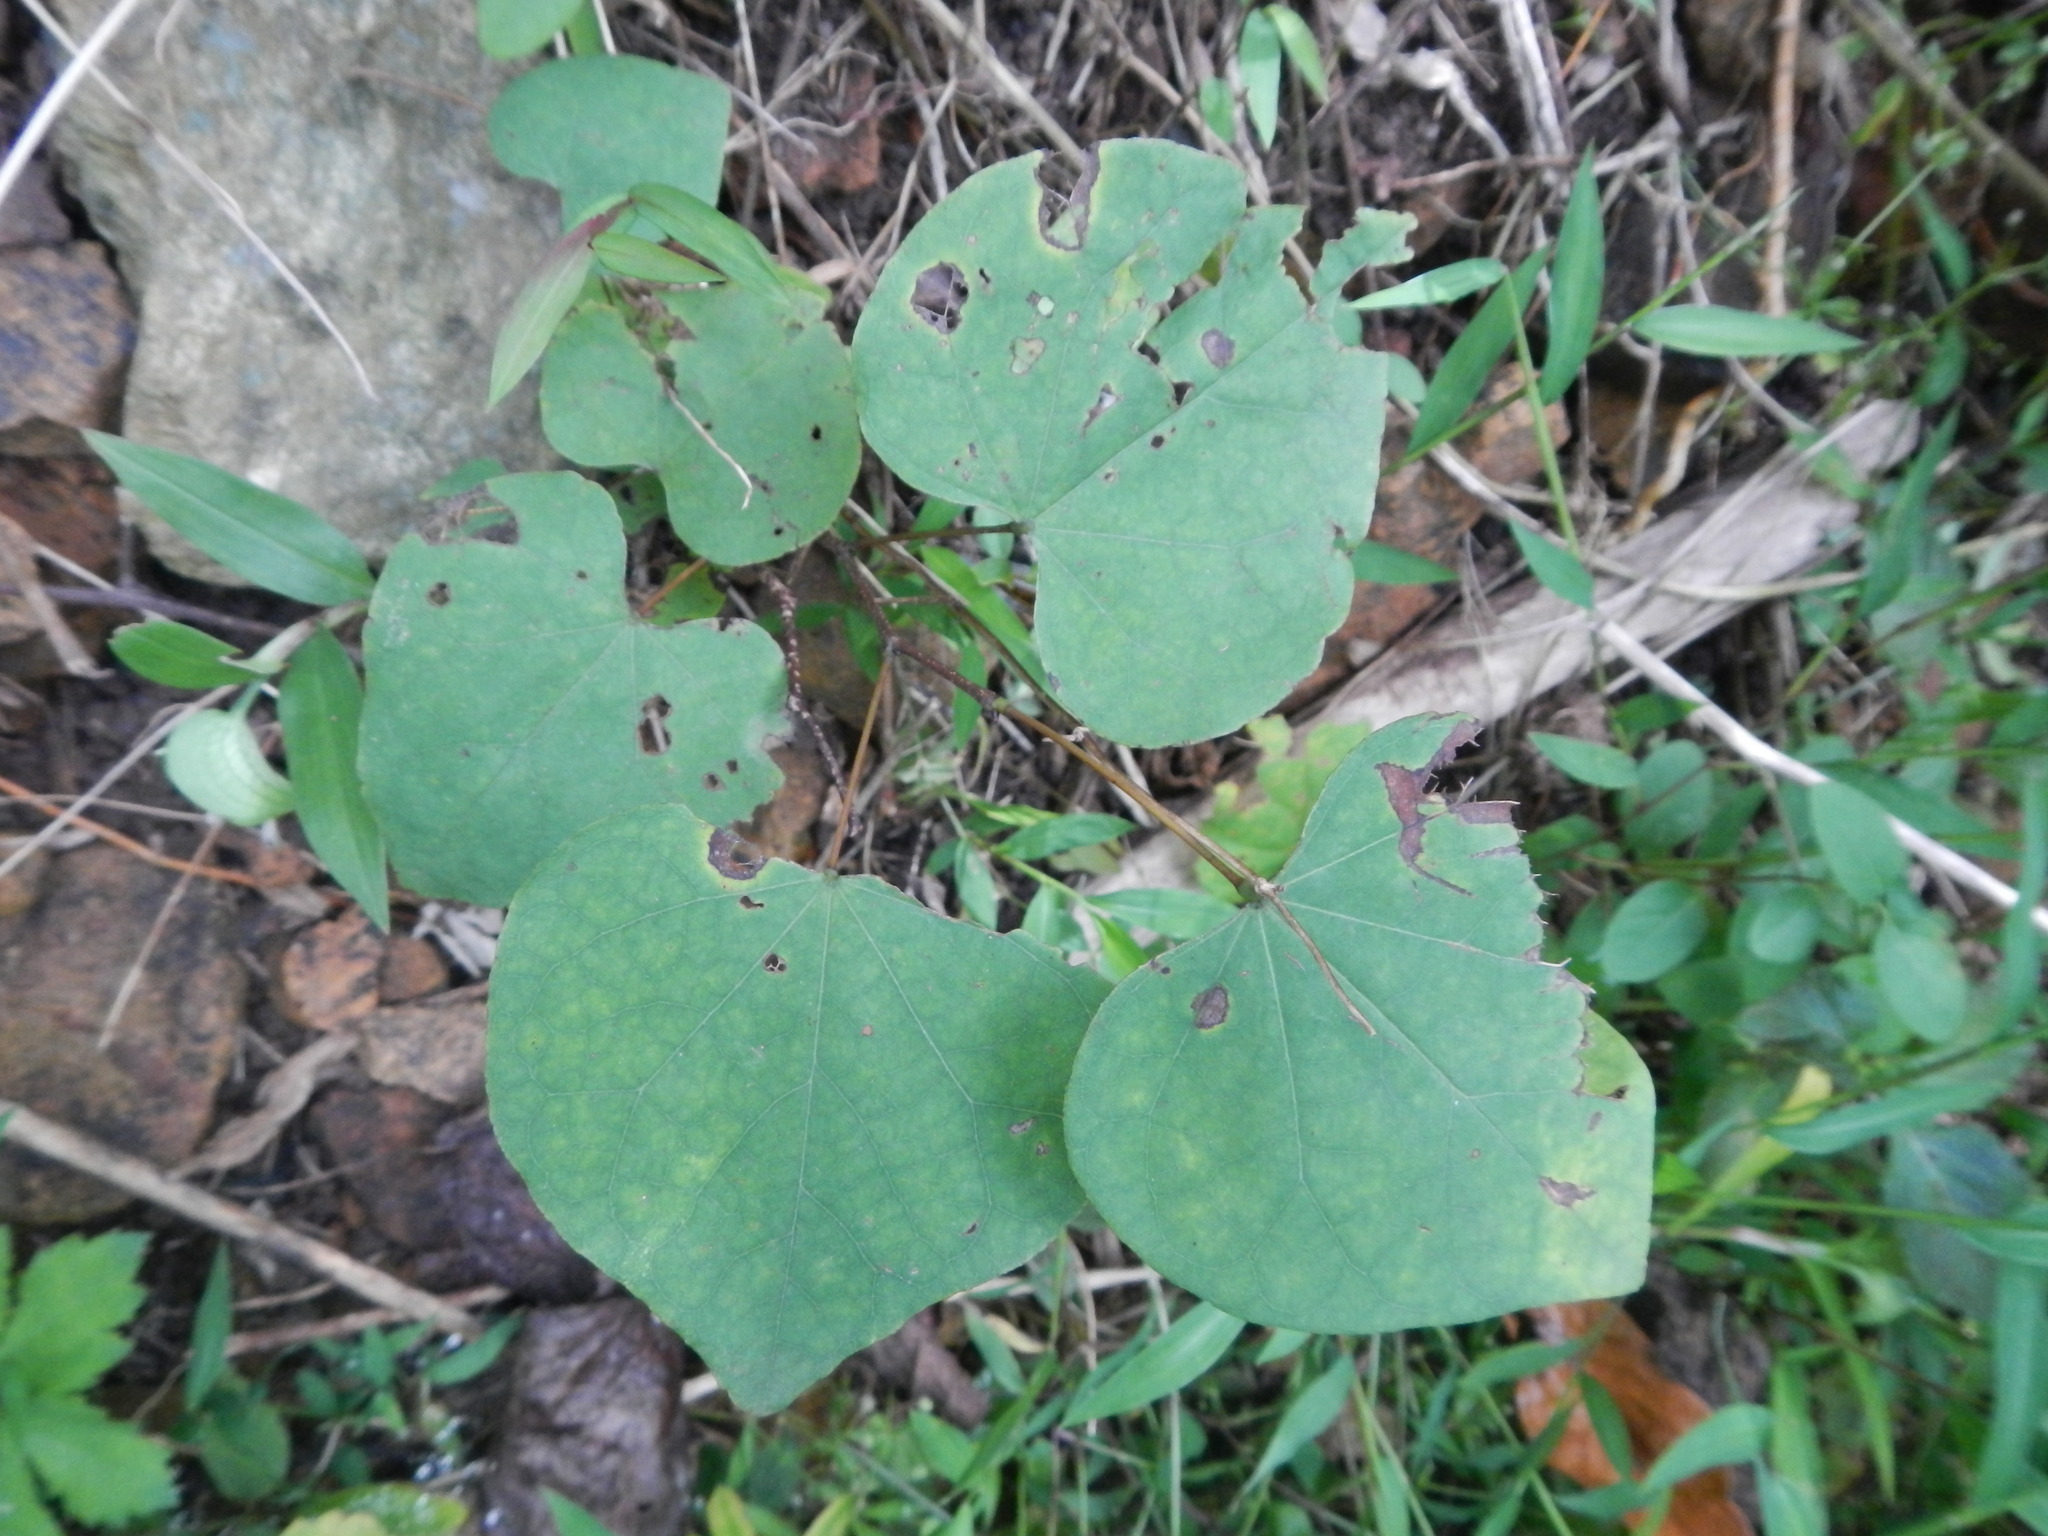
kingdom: Plantae
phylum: Tracheophyta
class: Magnoliopsida
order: Fabales
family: Fabaceae
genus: Cercis
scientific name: Cercis canadensis
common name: Eastern redbud
